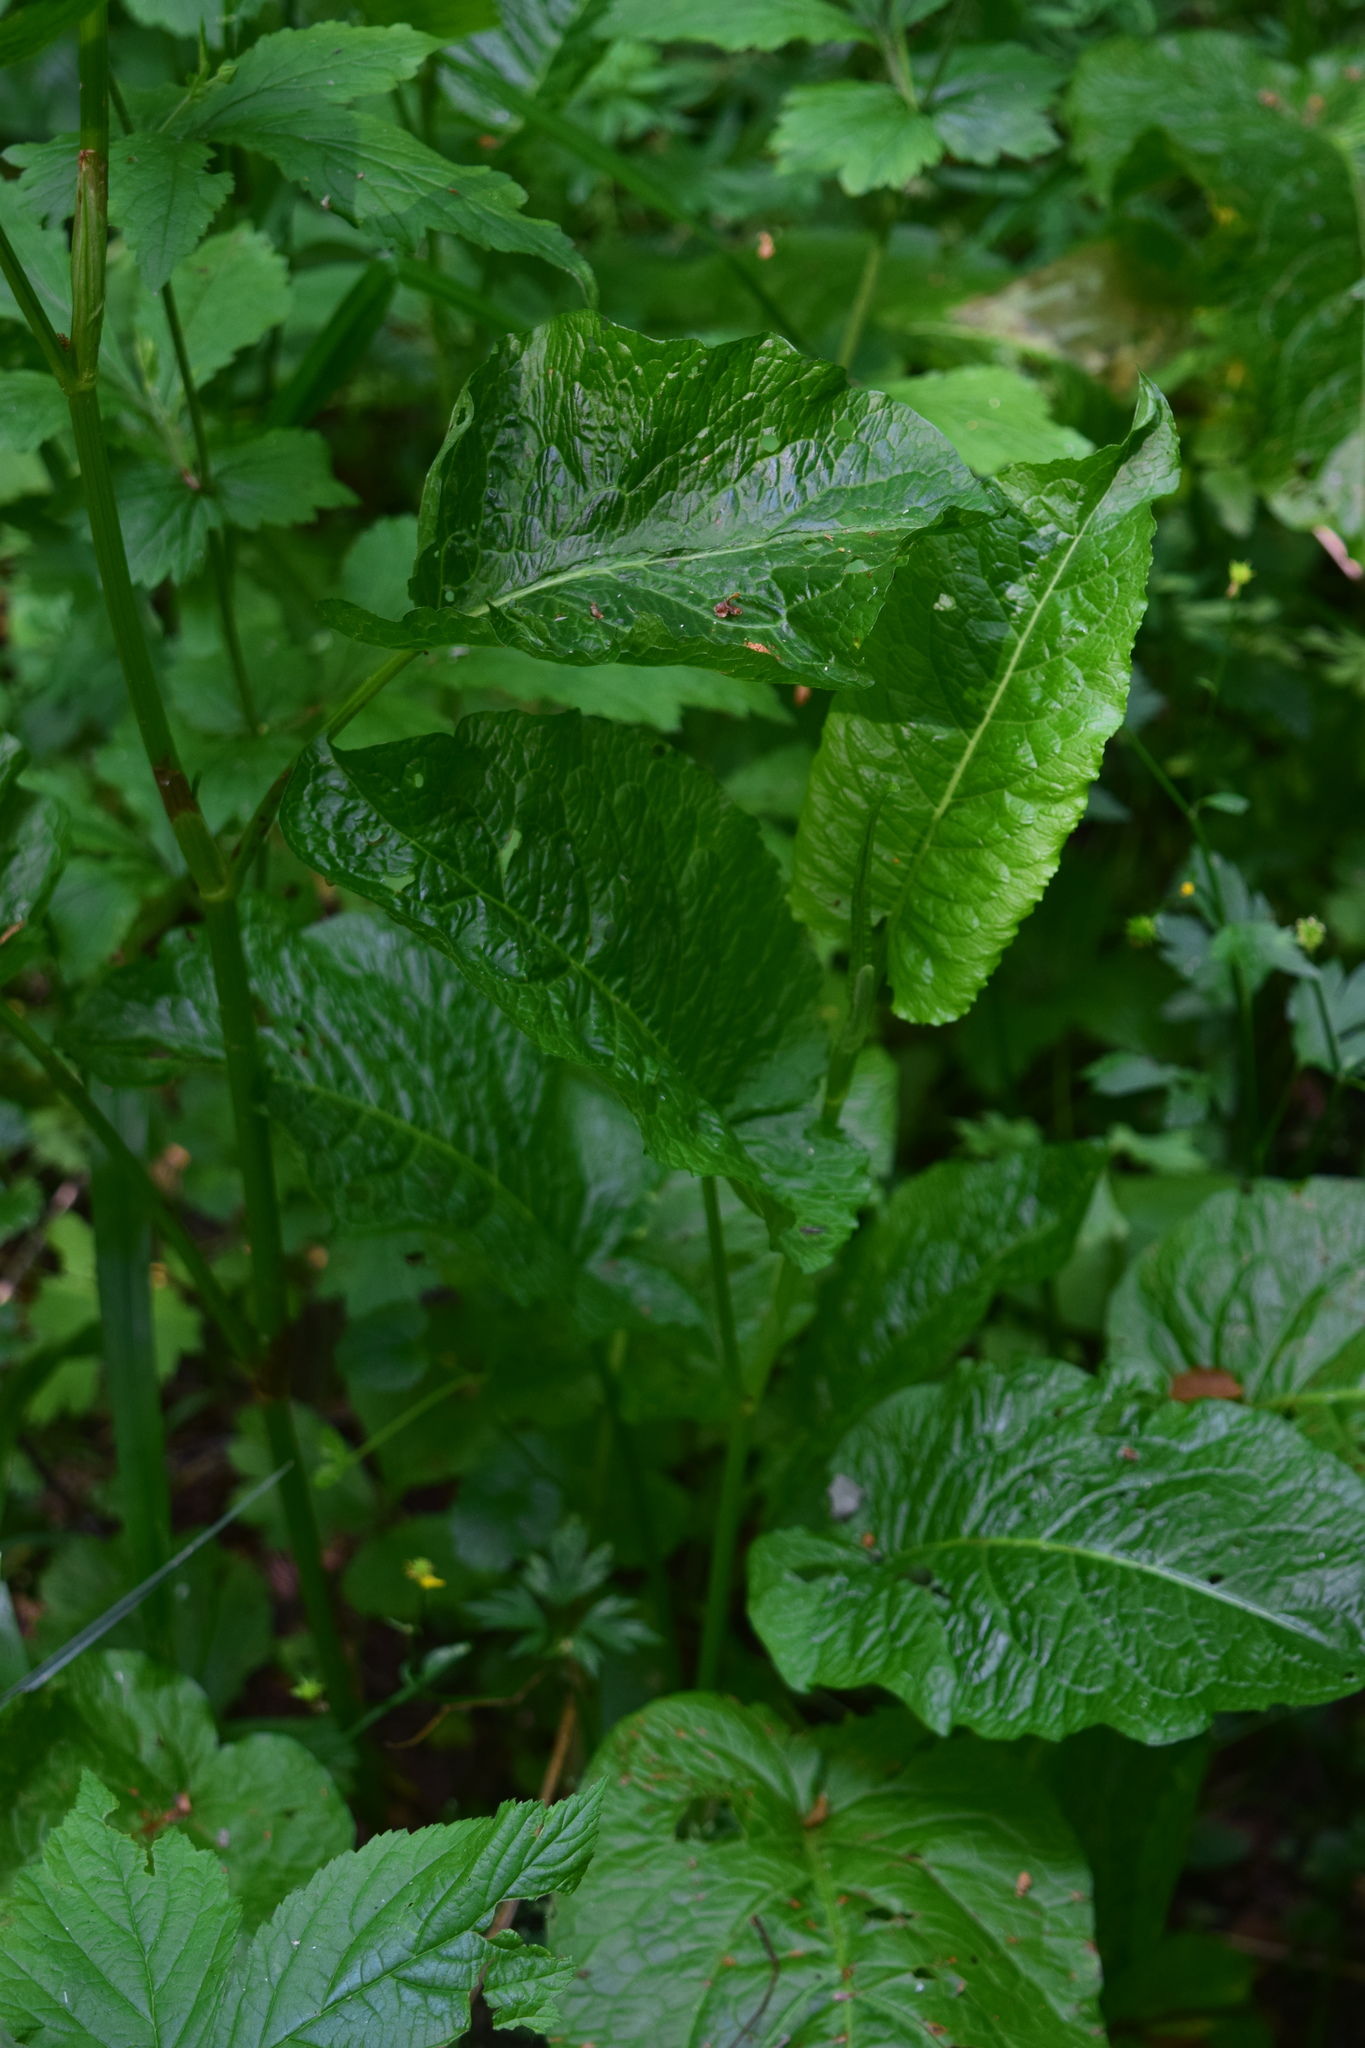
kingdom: Plantae
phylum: Tracheophyta
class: Magnoliopsida
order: Caryophyllales
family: Polygonaceae
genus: Rumex
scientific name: Rumex obtusifolius
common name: Bitter dock
